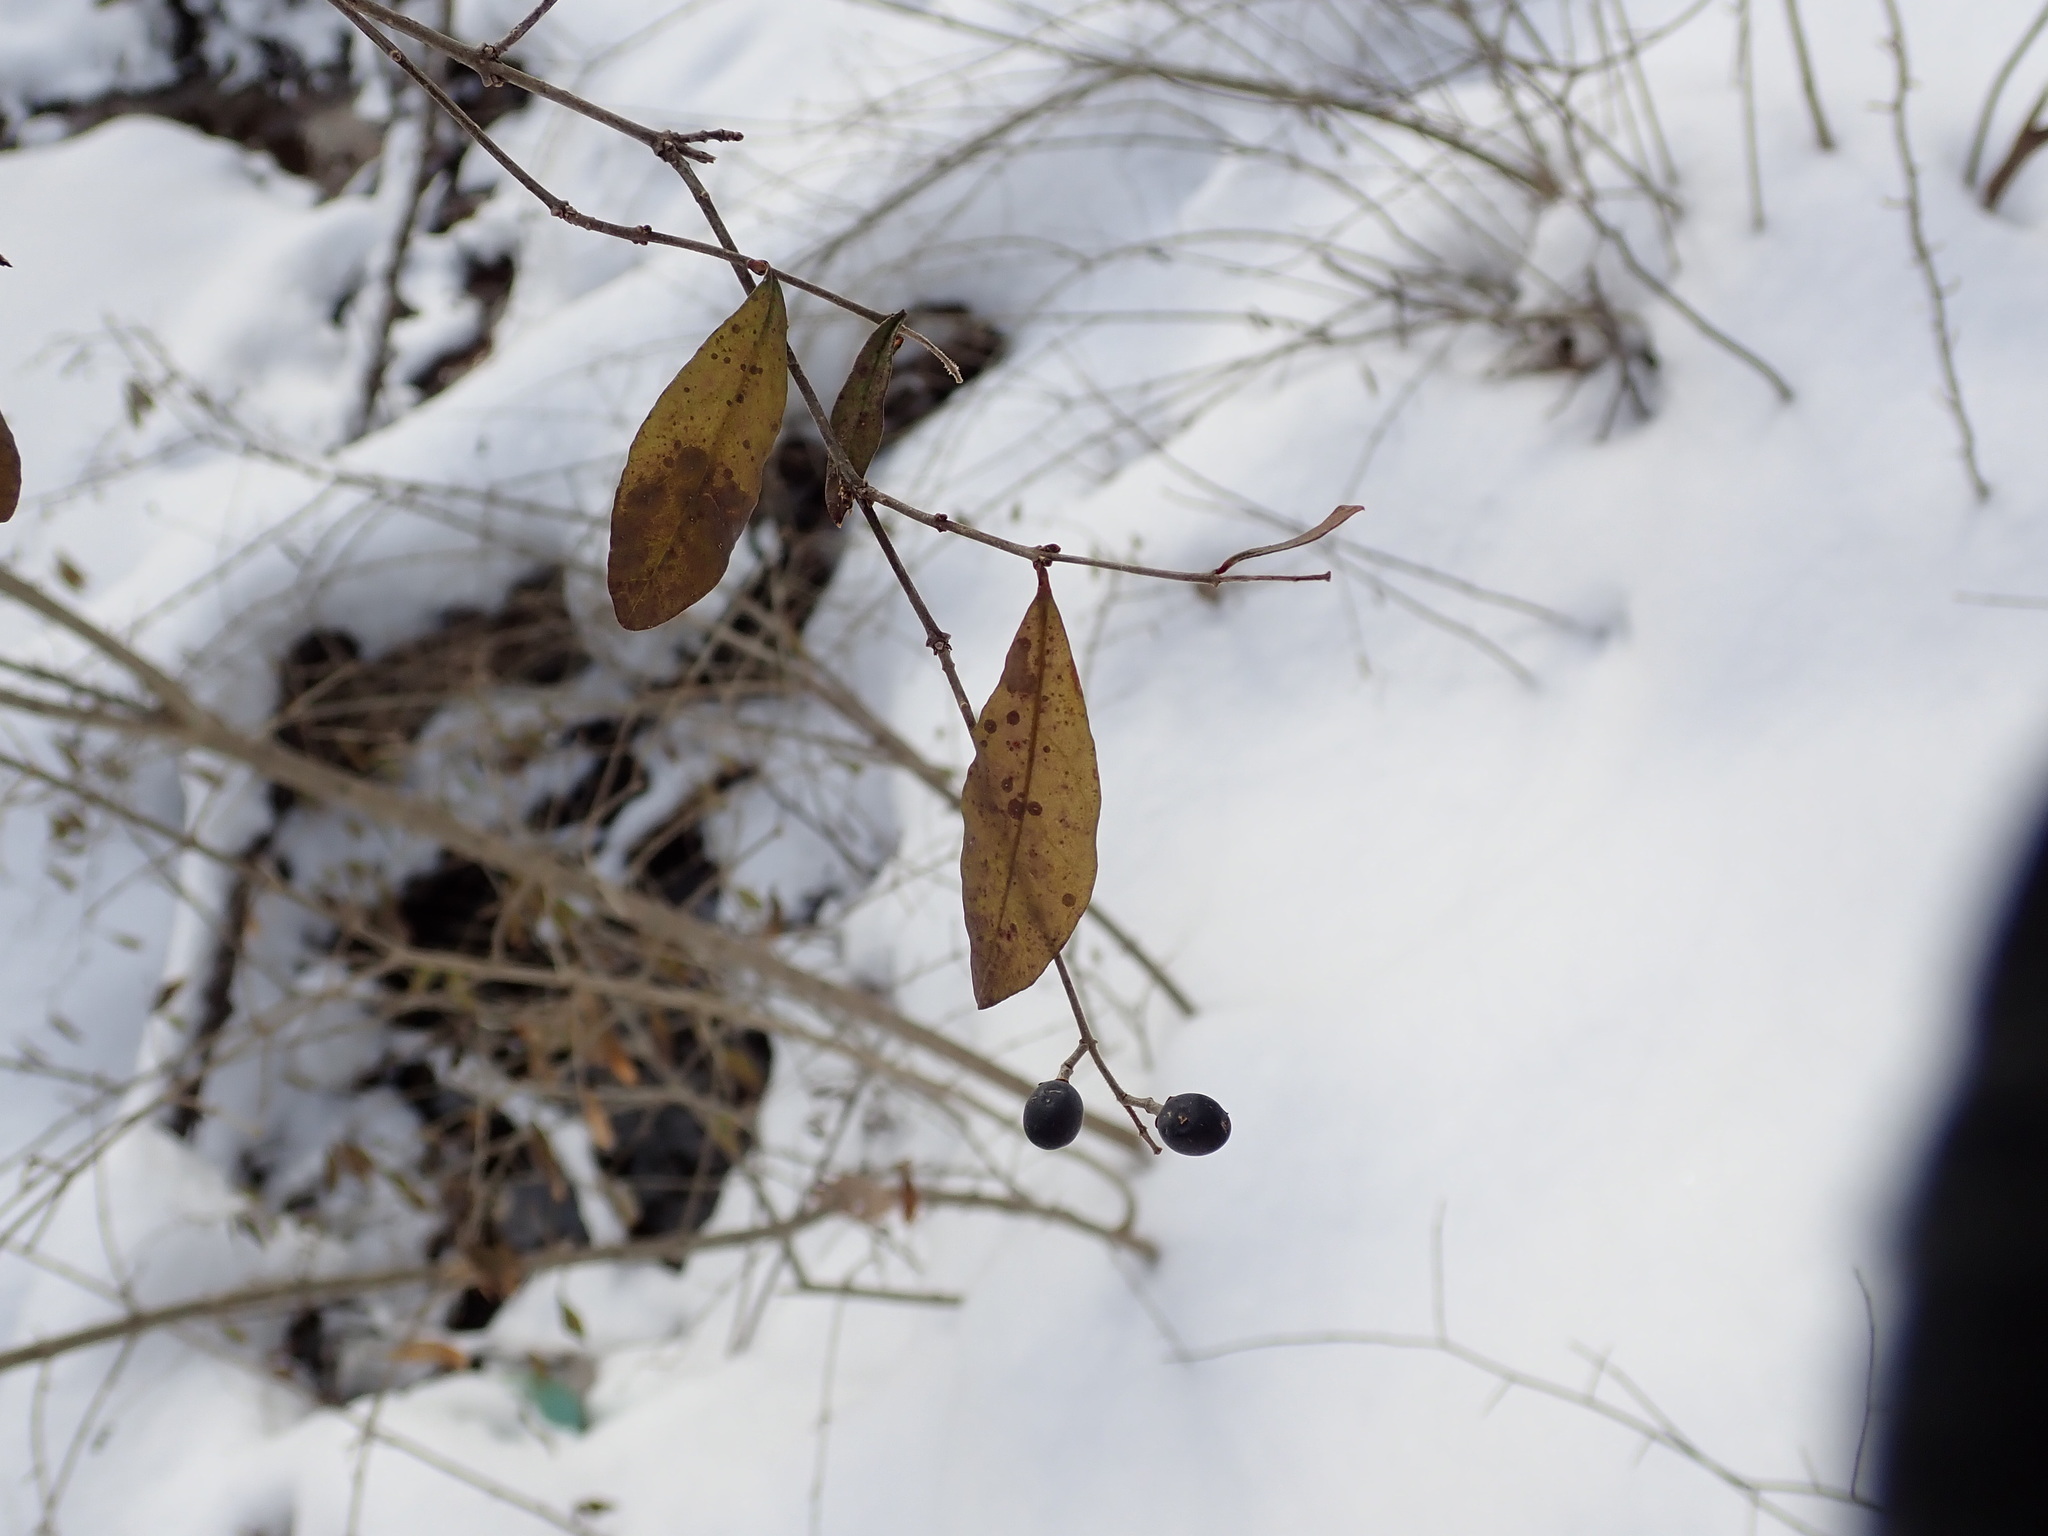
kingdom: Plantae
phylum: Tracheophyta
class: Magnoliopsida
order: Lamiales
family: Oleaceae
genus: Ligustrum
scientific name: Ligustrum
